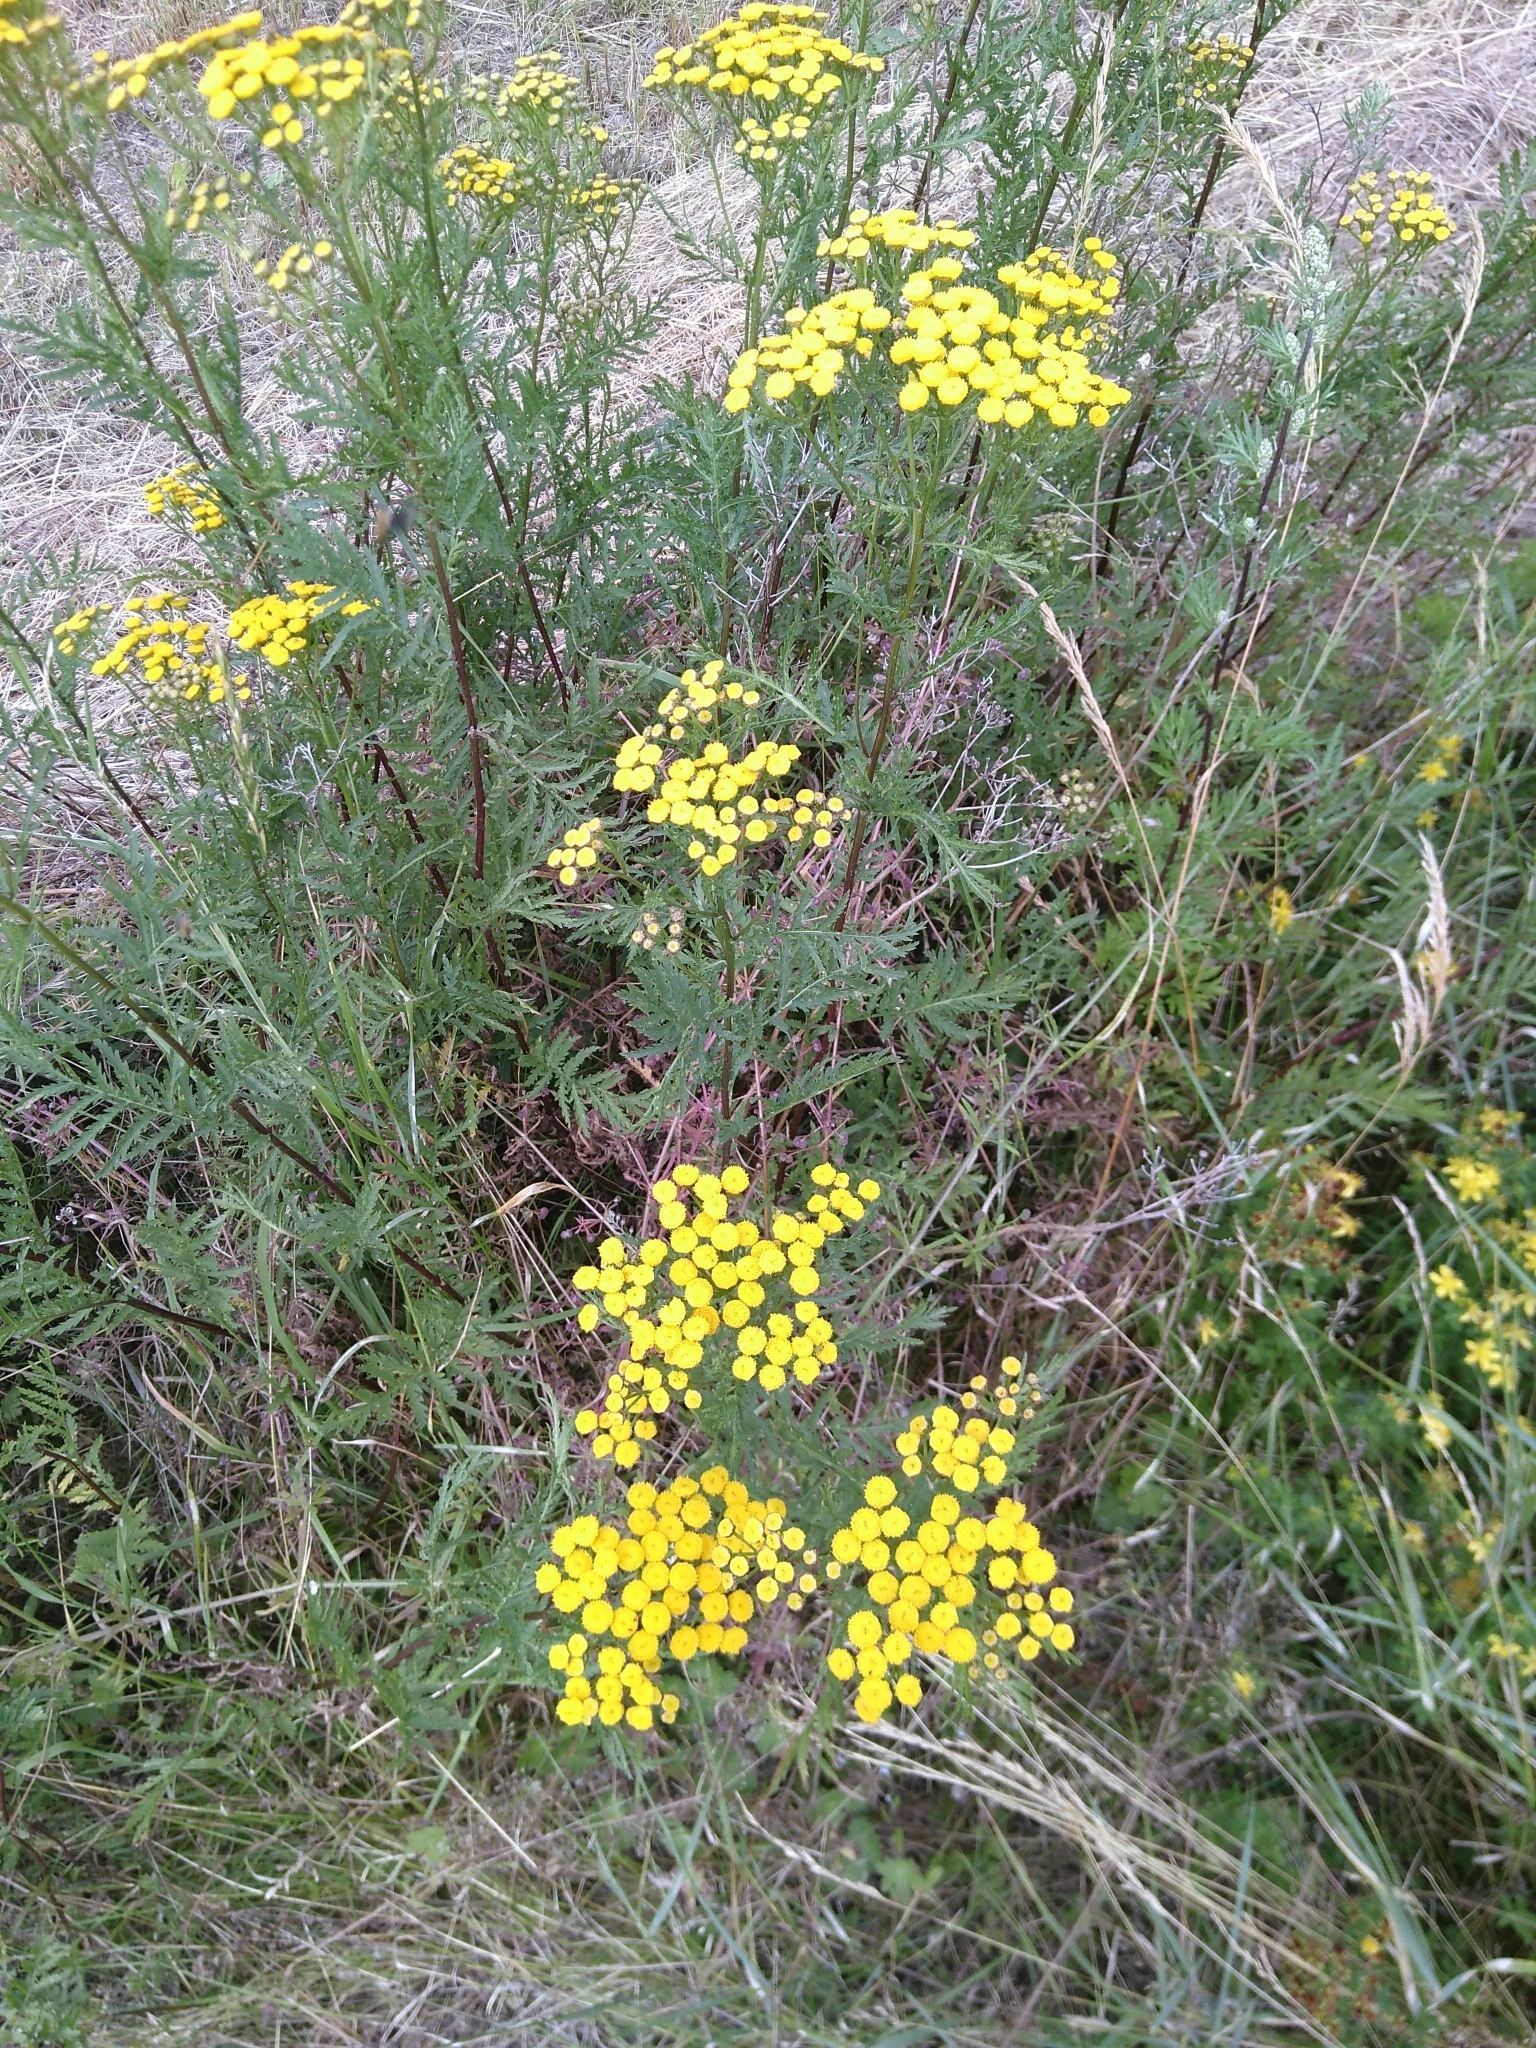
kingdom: Plantae
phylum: Tracheophyta
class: Magnoliopsida
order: Asterales
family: Asteraceae
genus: Tanacetum
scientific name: Tanacetum vulgare
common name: Common tansy
